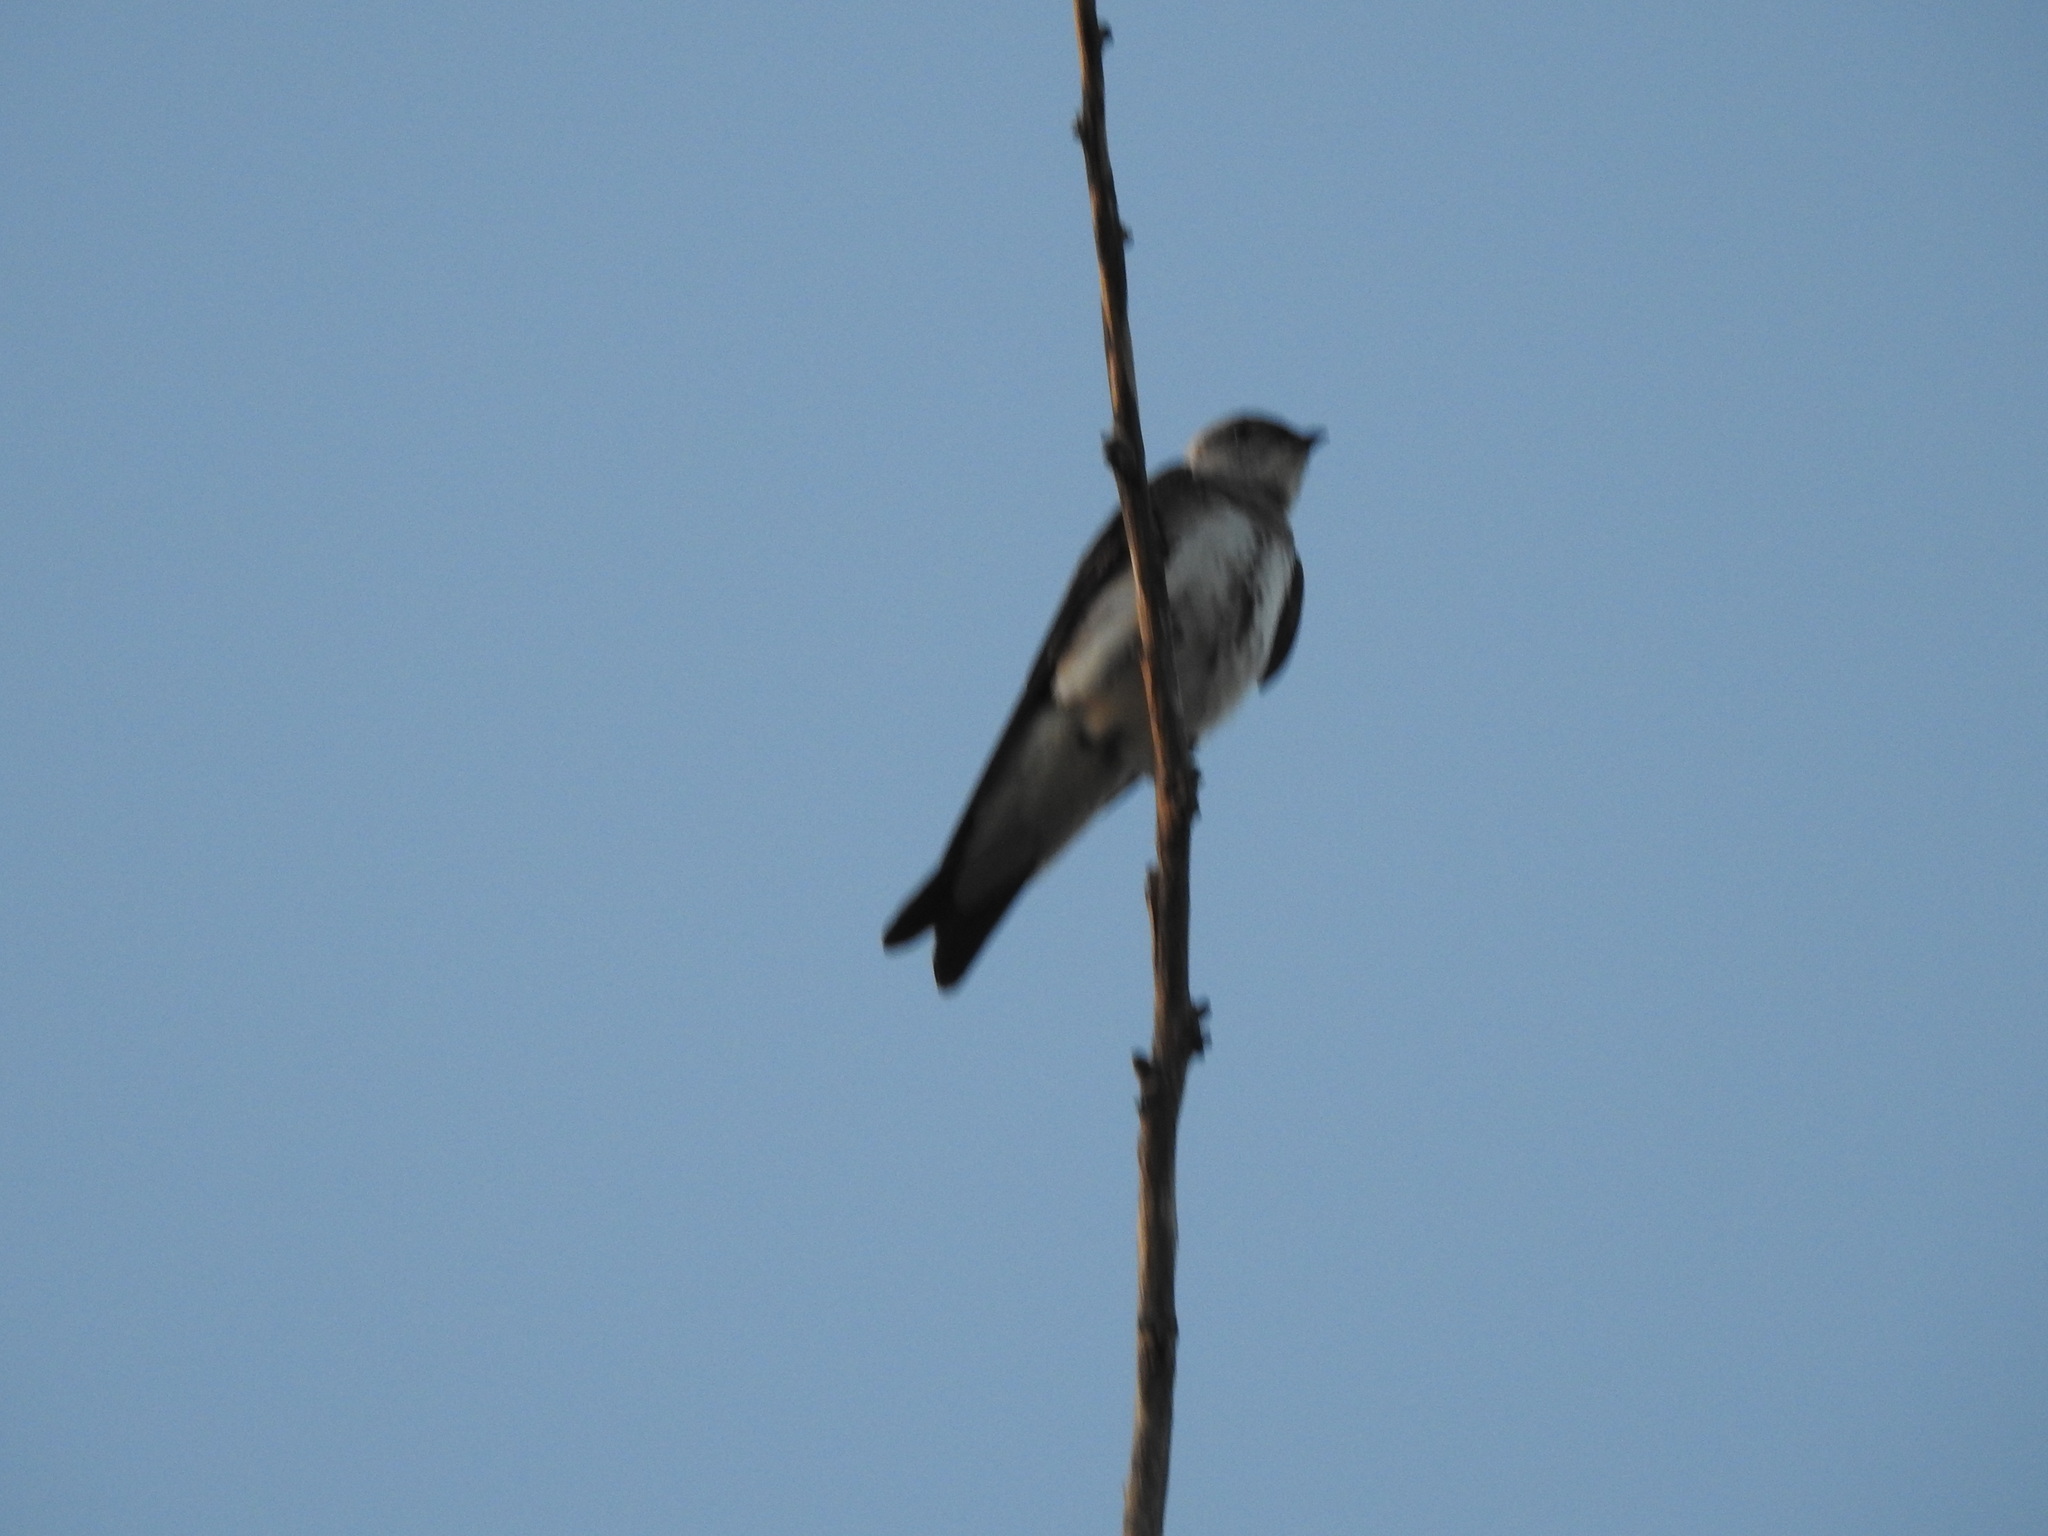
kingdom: Animalia
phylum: Chordata
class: Aves
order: Passeriformes
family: Hirundinidae
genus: Progne
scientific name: Progne tapera
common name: Brown-chested martin
